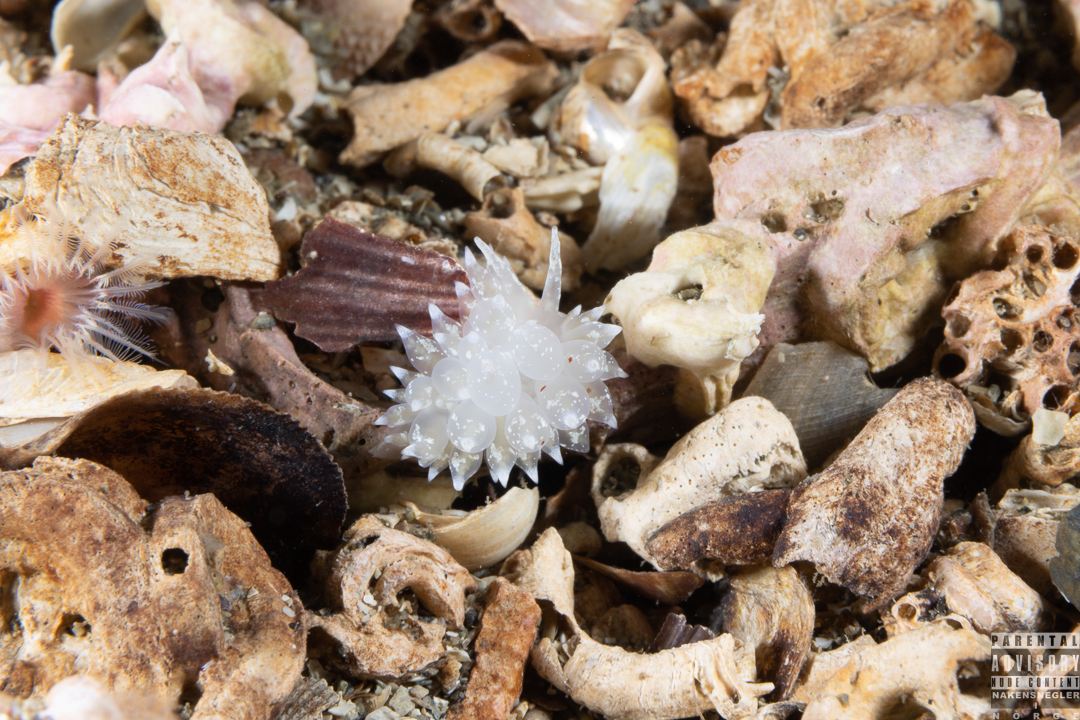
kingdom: Animalia
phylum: Mollusca
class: Gastropoda
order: Nudibranchia
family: Eubranchidae
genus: Amphorina
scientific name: Amphorina pallida
